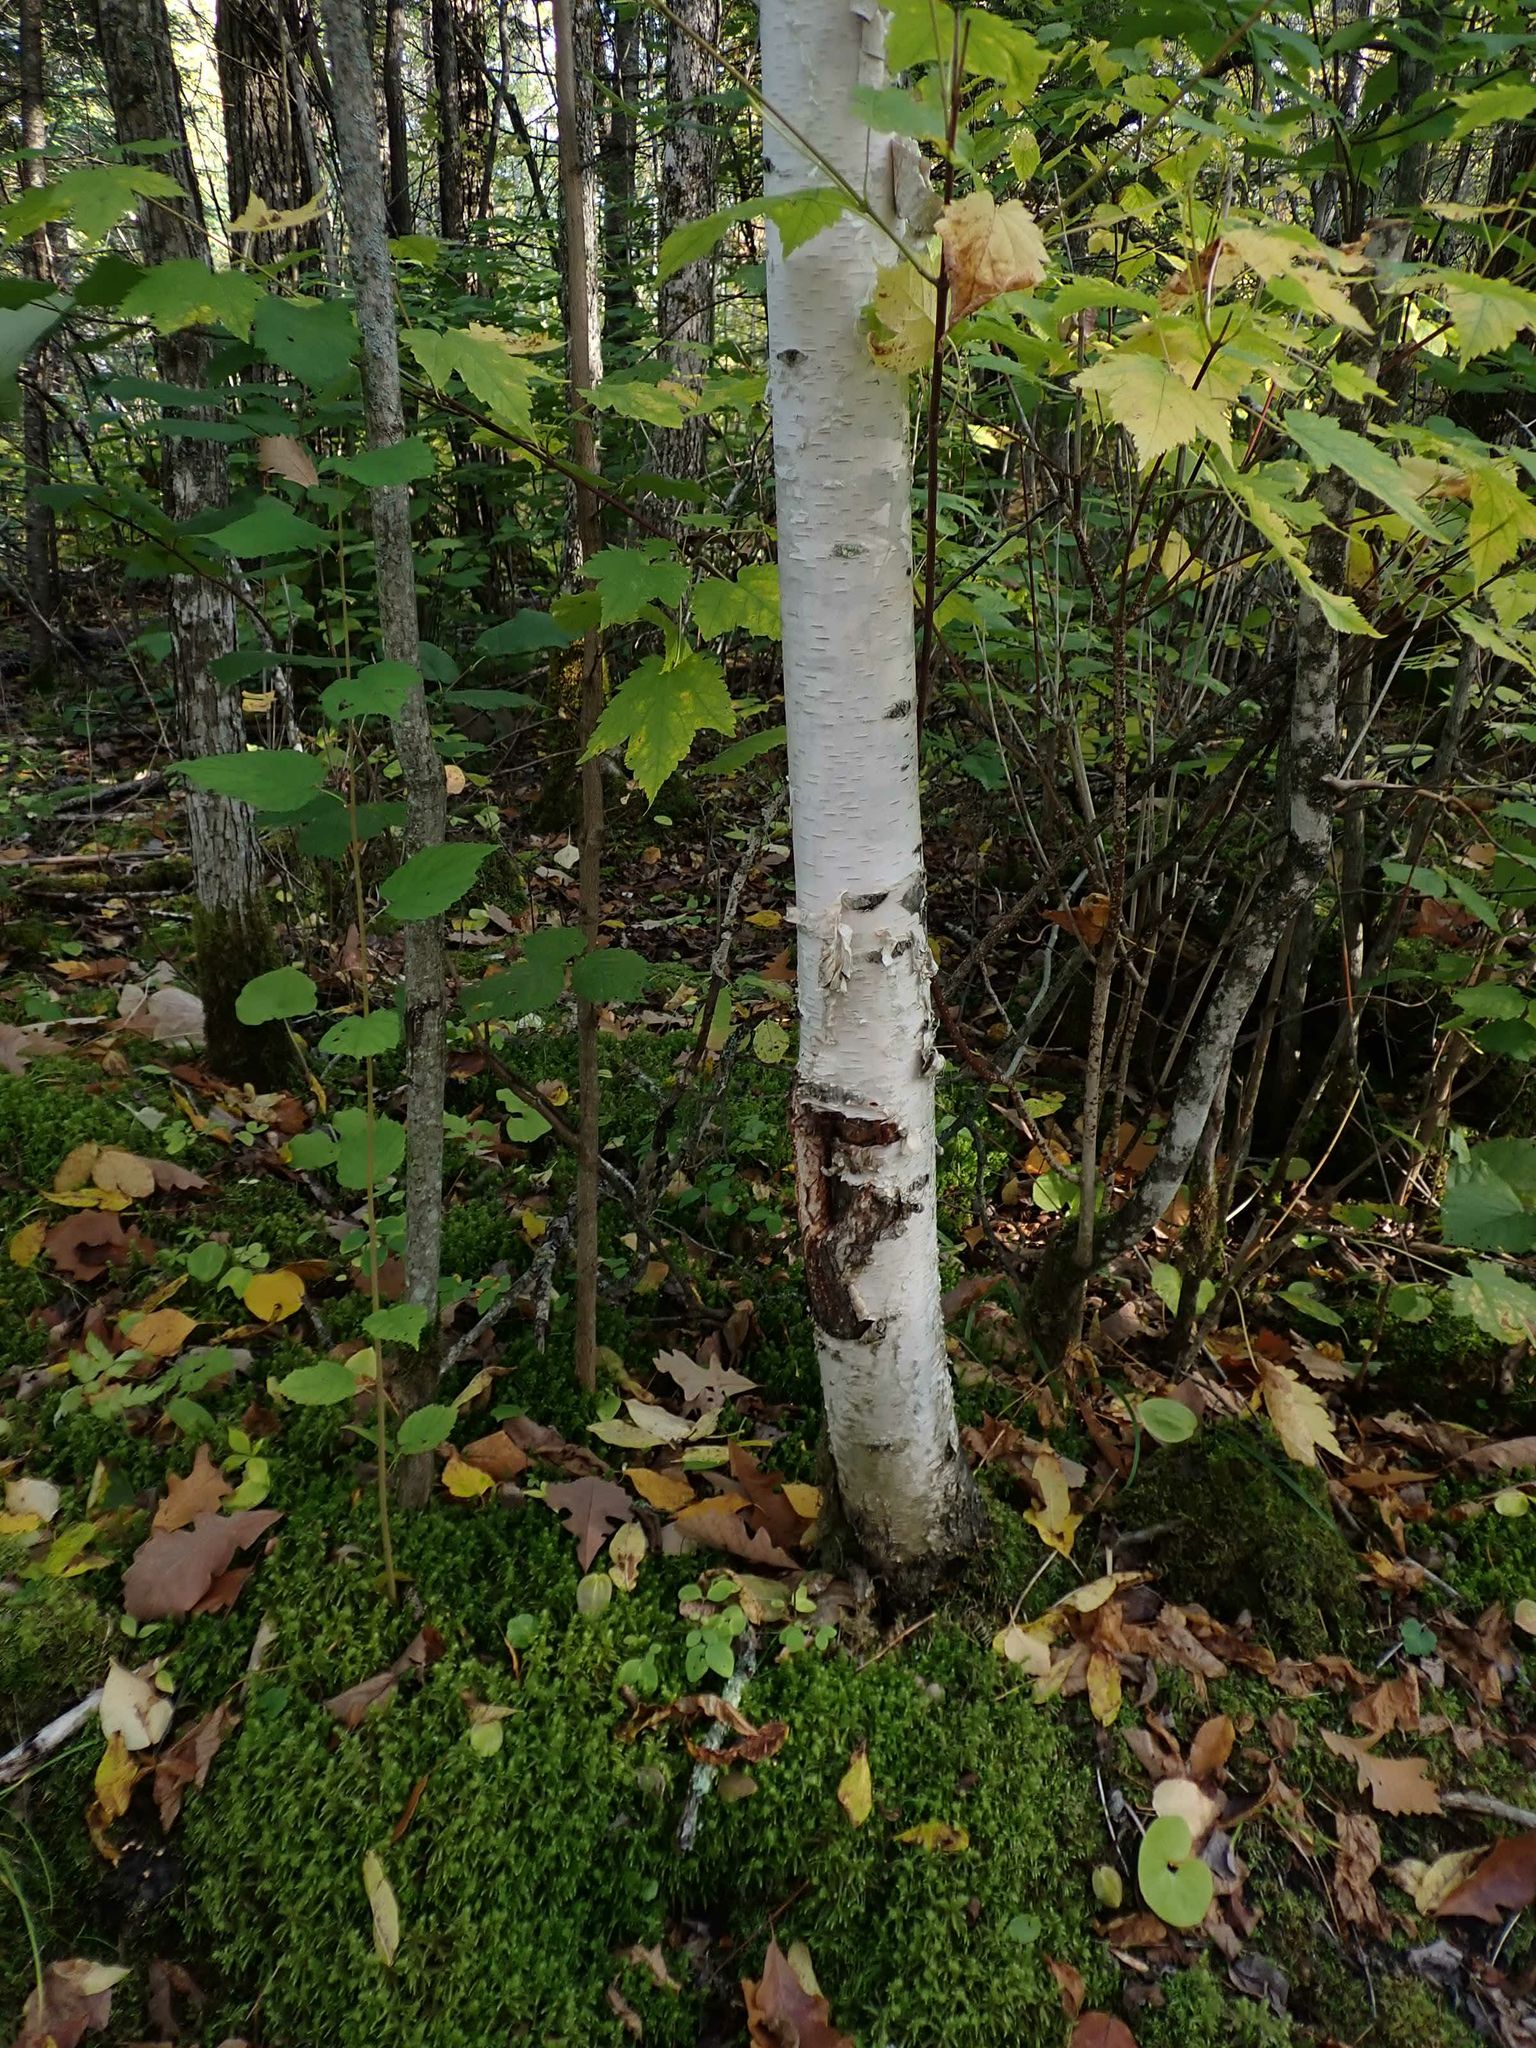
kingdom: Plantae
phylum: Tracheophyta
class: Magnoliopsida
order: Fagales
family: Betulaceae
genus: Betula
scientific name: Betula papyrifera
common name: Paper birch
